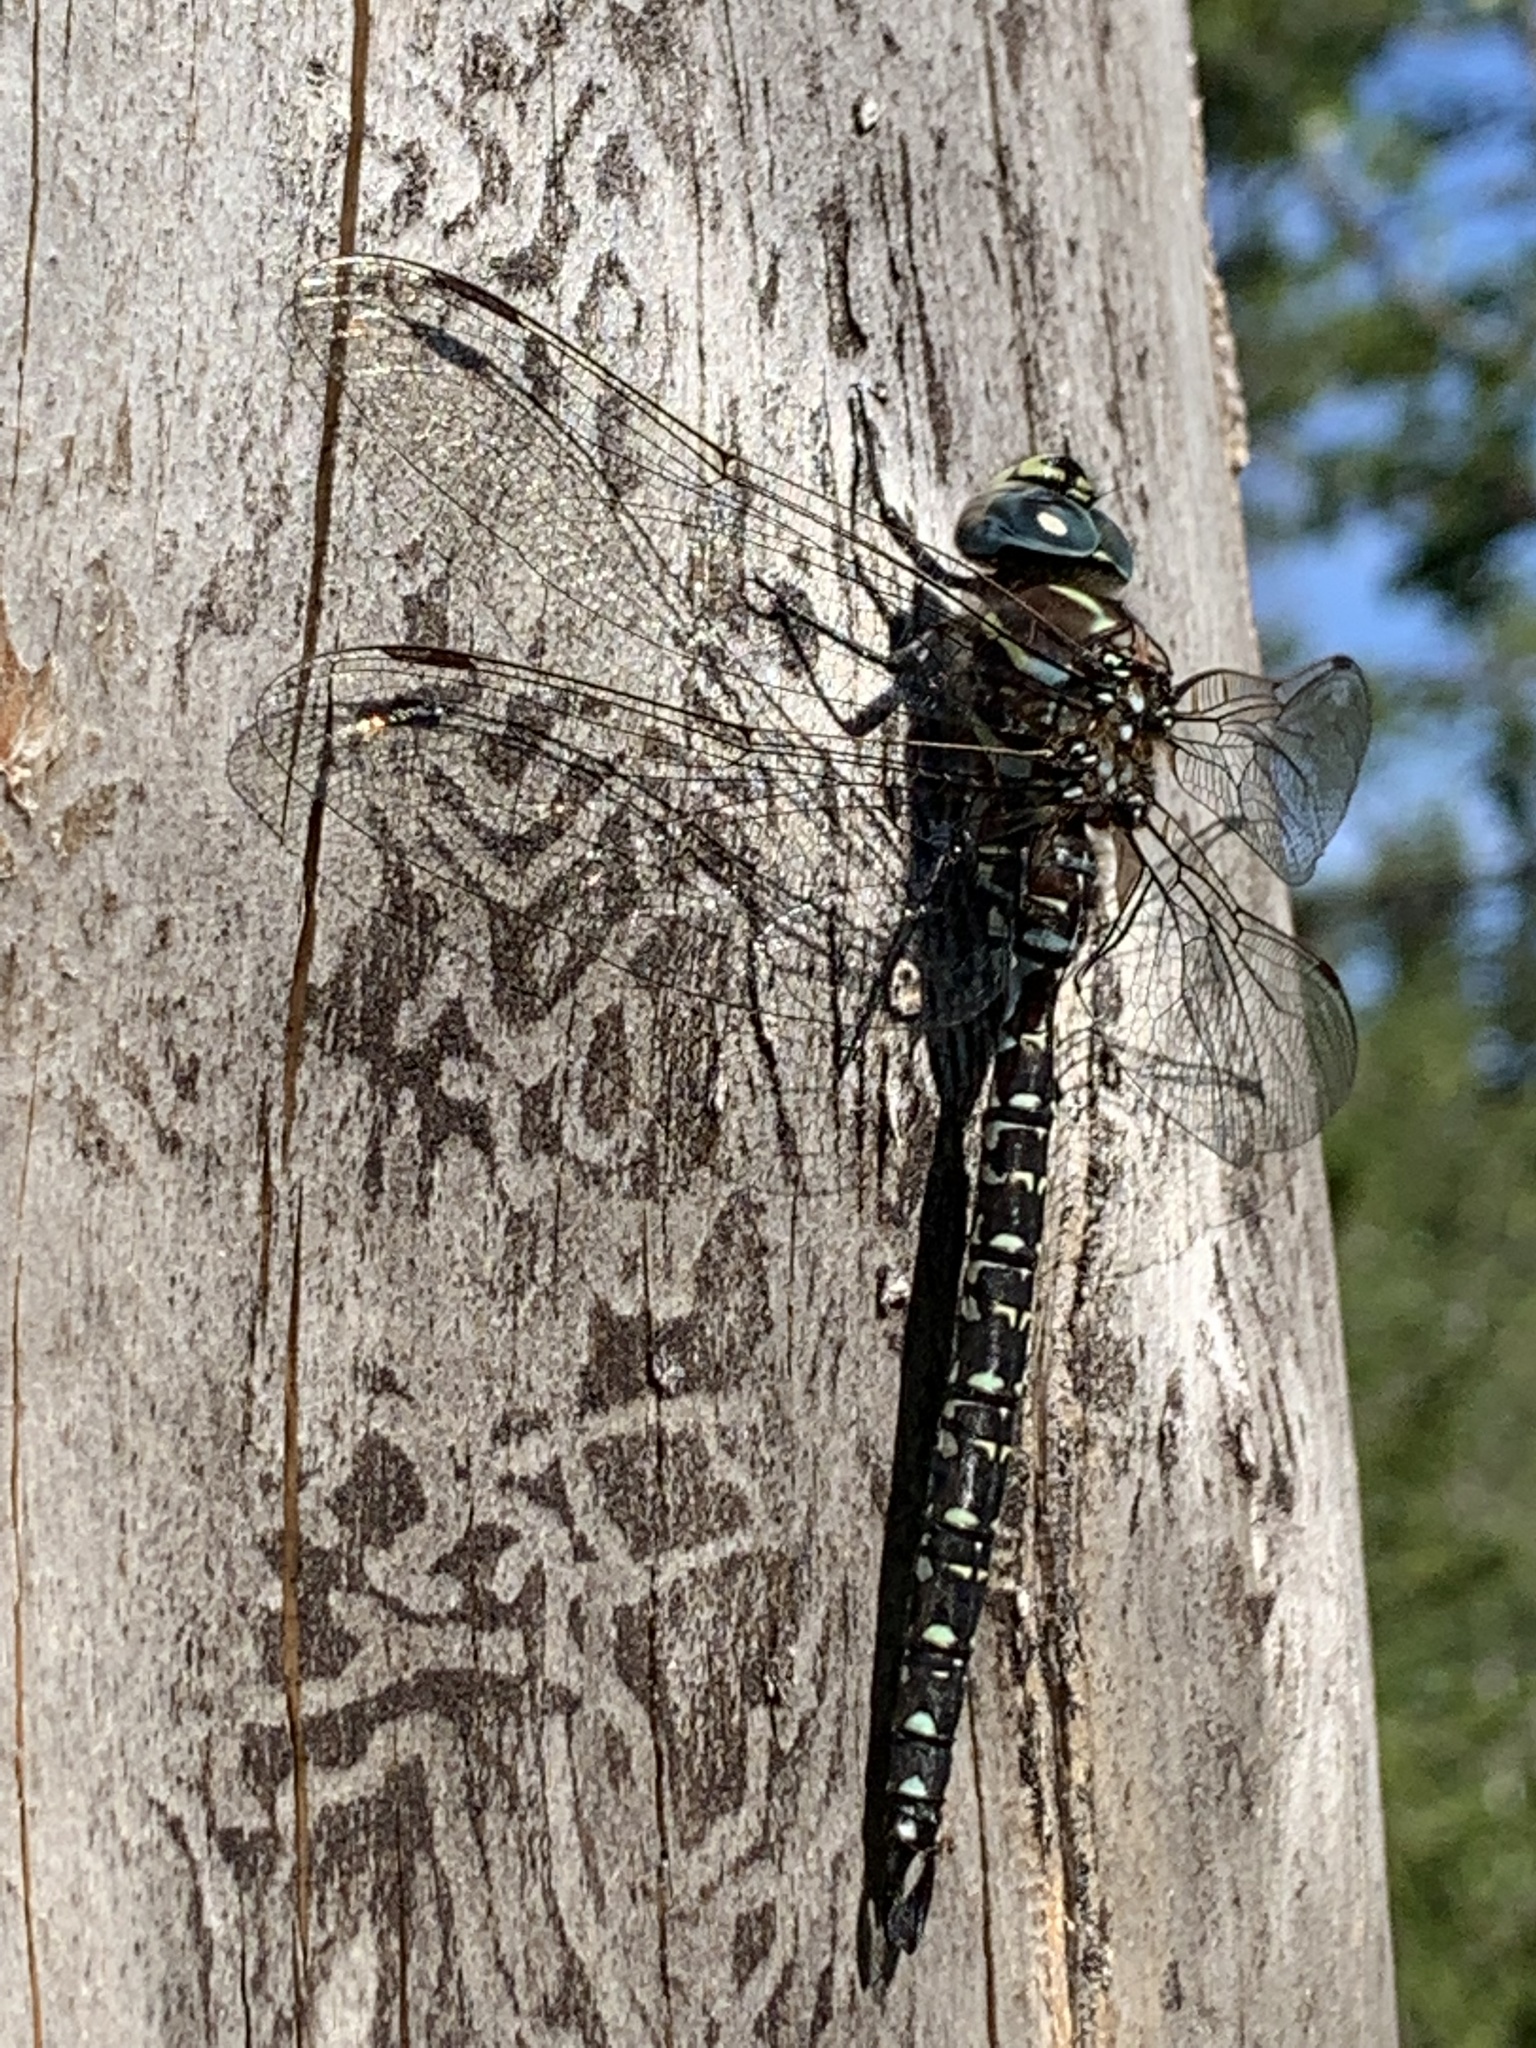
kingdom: Animalia
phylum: Arthropoda
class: Insecta
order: Odonata
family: Aeshnidae
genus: Aeshna
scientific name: Aeshna subarctica
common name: Subarctic darner
